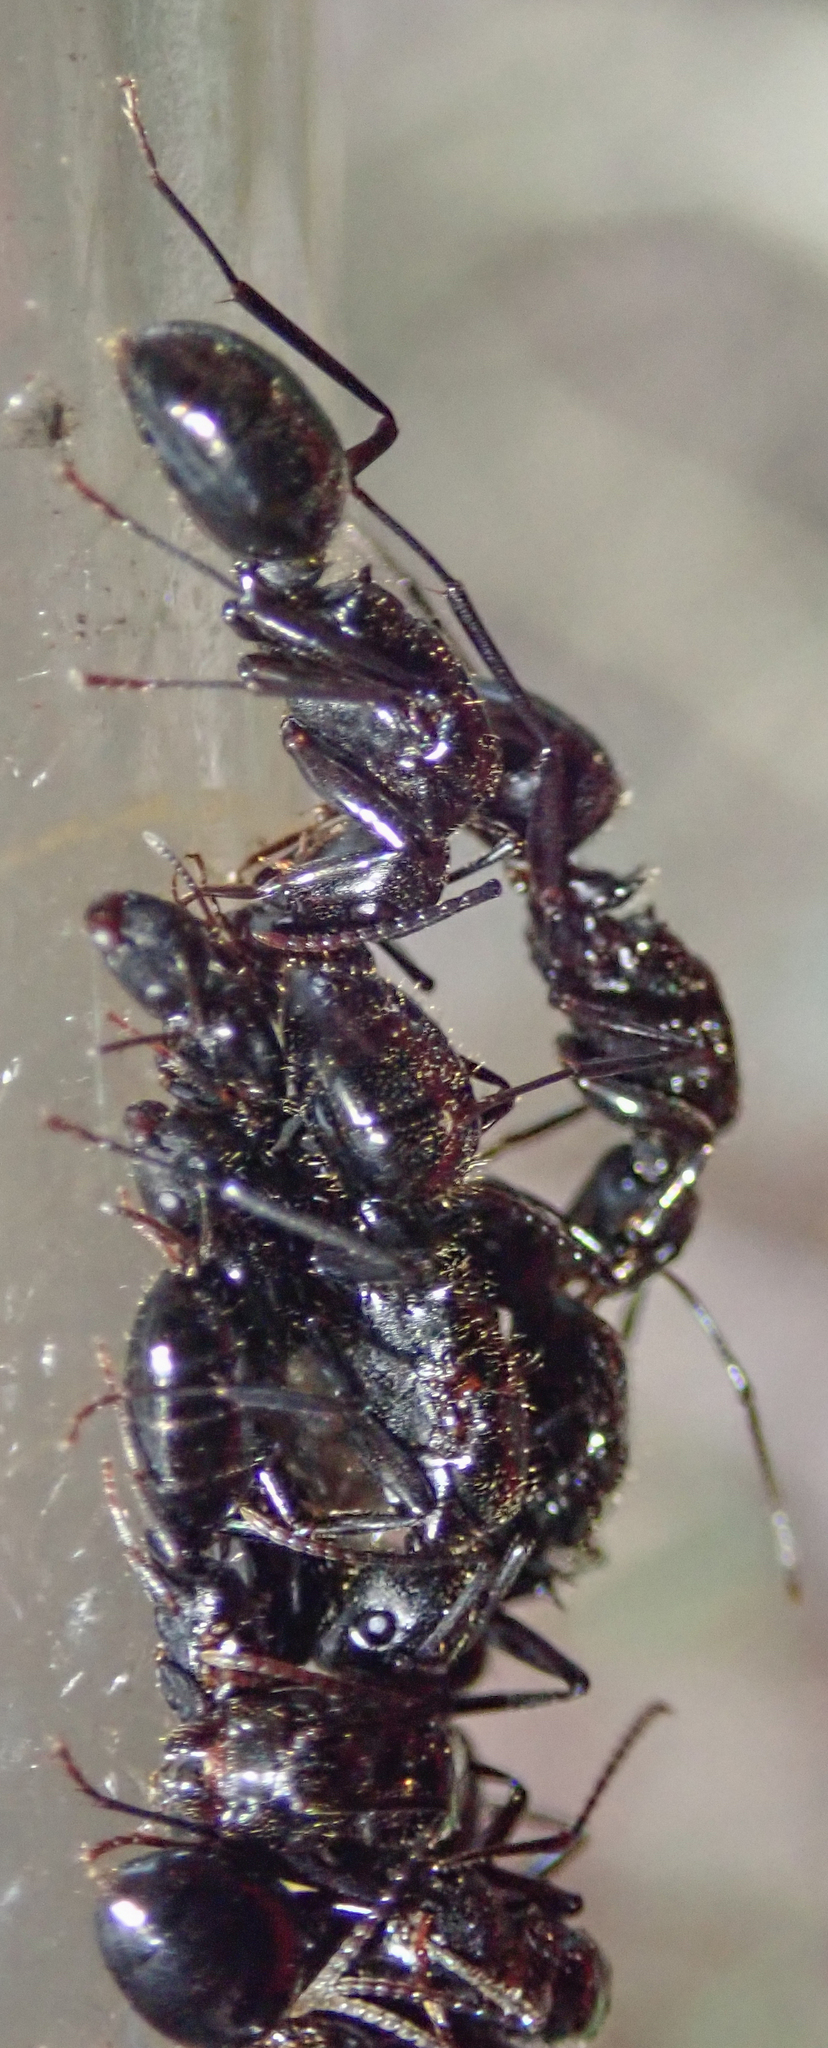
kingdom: Animalia
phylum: Arthropoda
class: Insecta
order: Hymenoptera
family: Formicidae
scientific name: Formicidae
